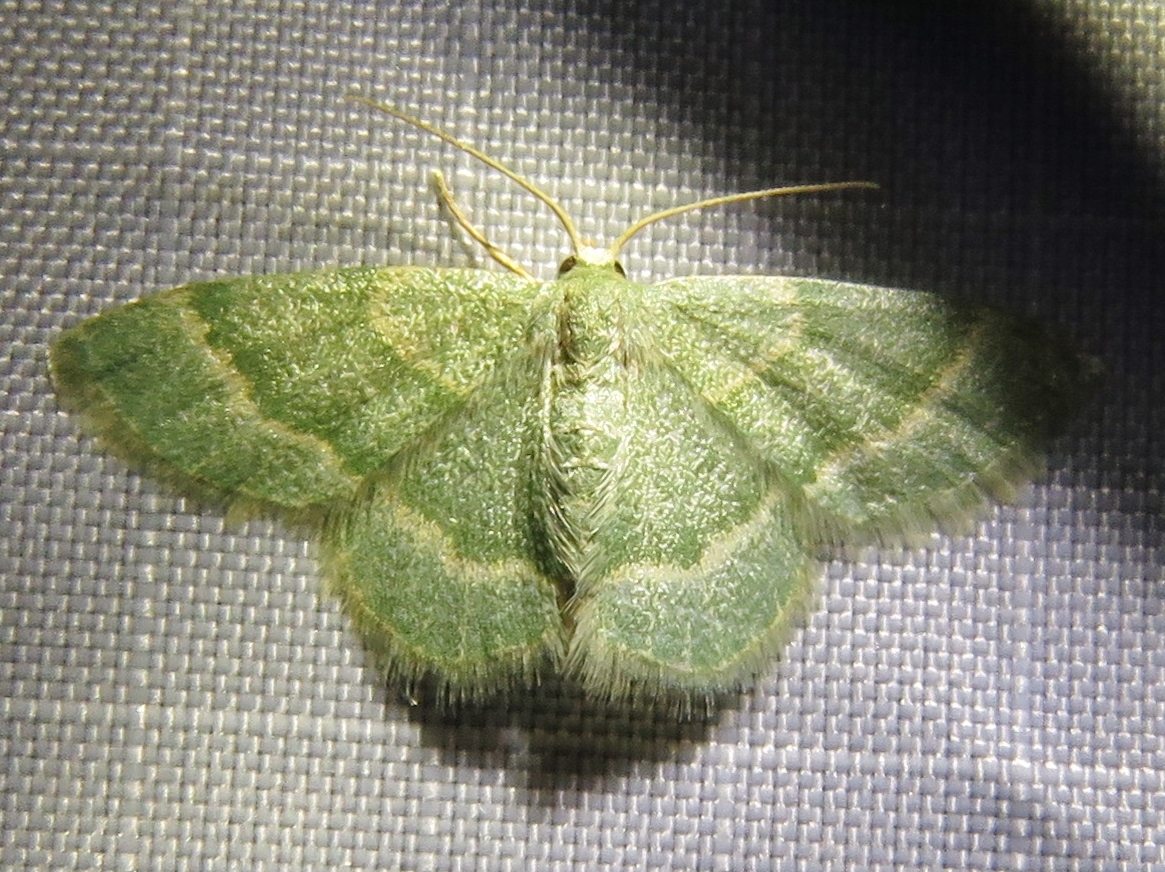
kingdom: Animalia
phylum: Arthropoda
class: Insecta
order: Lepidoptera
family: Geometridae
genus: Chlorochlamys
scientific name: Chlorochlamys chloroleucaria
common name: Blackberry looper
